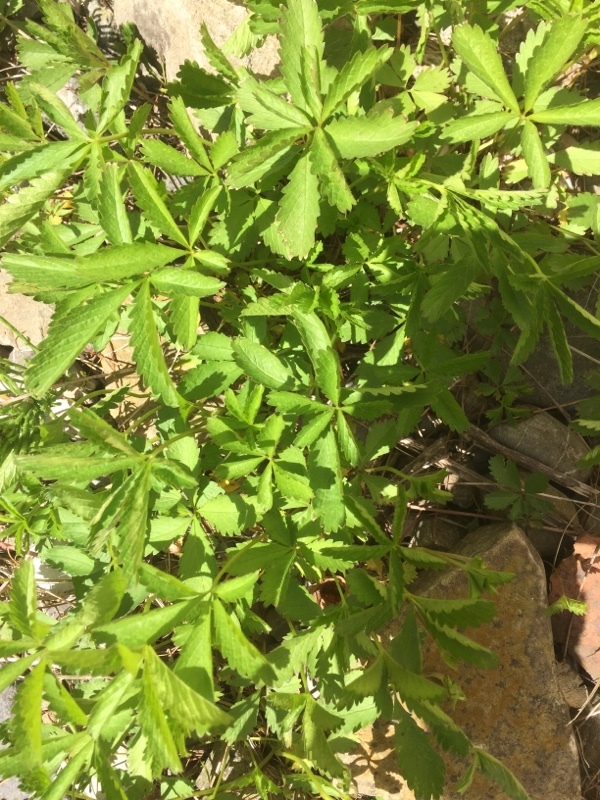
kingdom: Plantae
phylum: Tracheophyta
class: Magnoliopsida
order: Rosales
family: Rosaceae
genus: Potentilla
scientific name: Potentilla reptans
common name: Creeping cinquefoil
